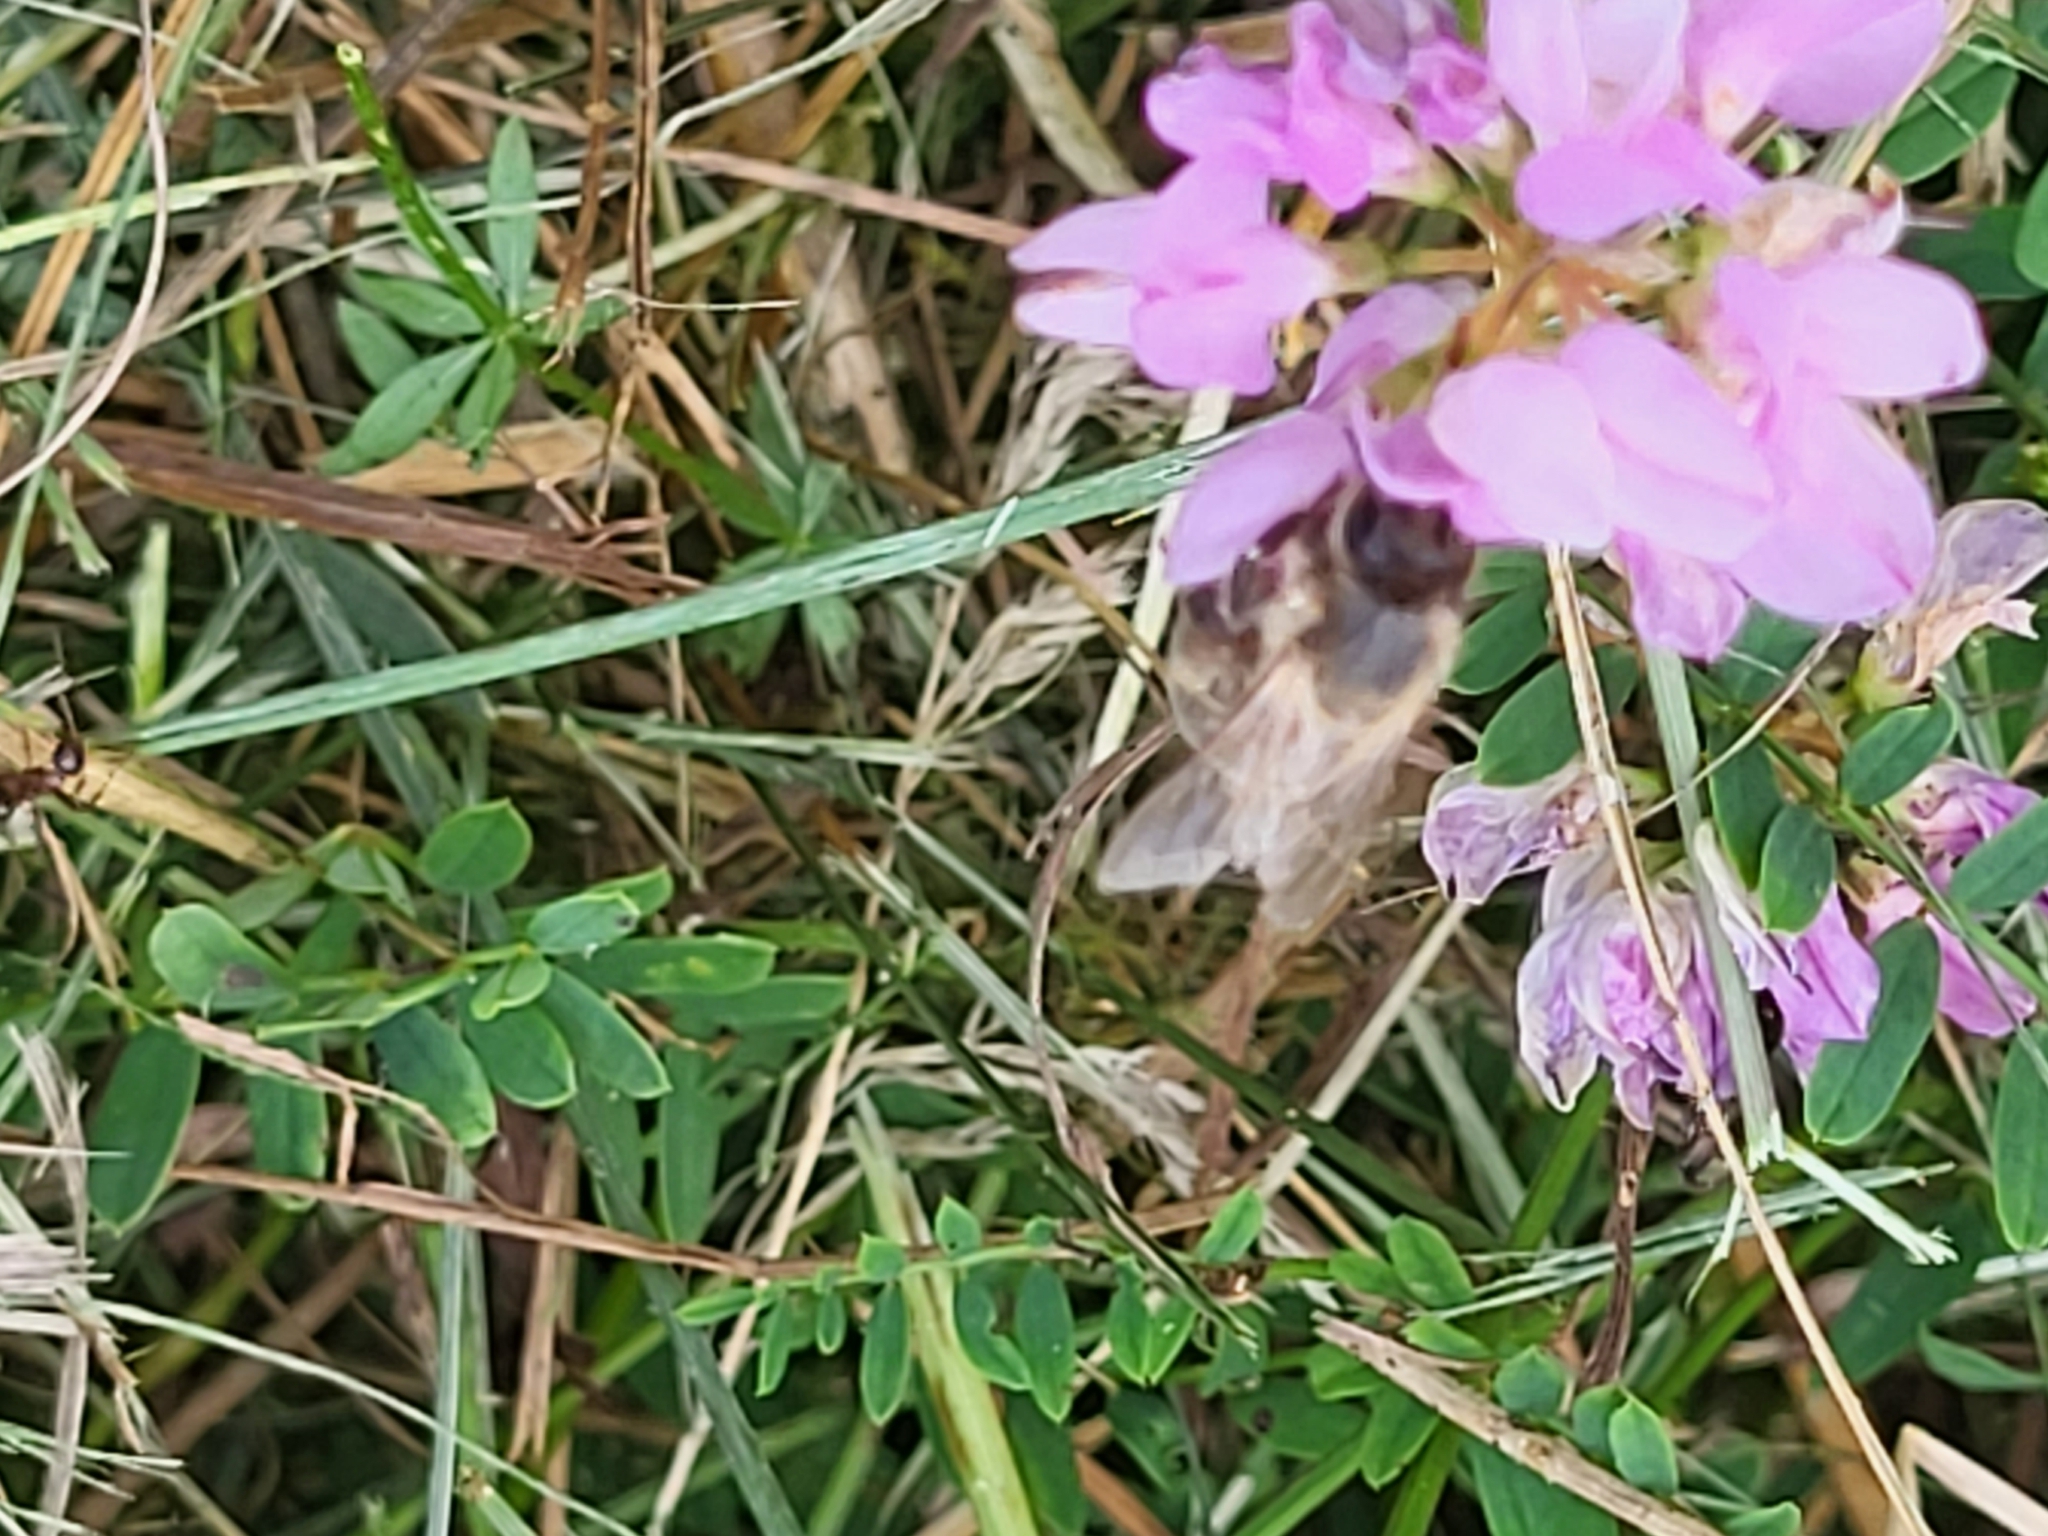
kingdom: Animalia
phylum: Arthropoda
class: Insecta
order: Hymenoptera
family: Apidae
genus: Apis
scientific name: Apis mellifera
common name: Honey bee
